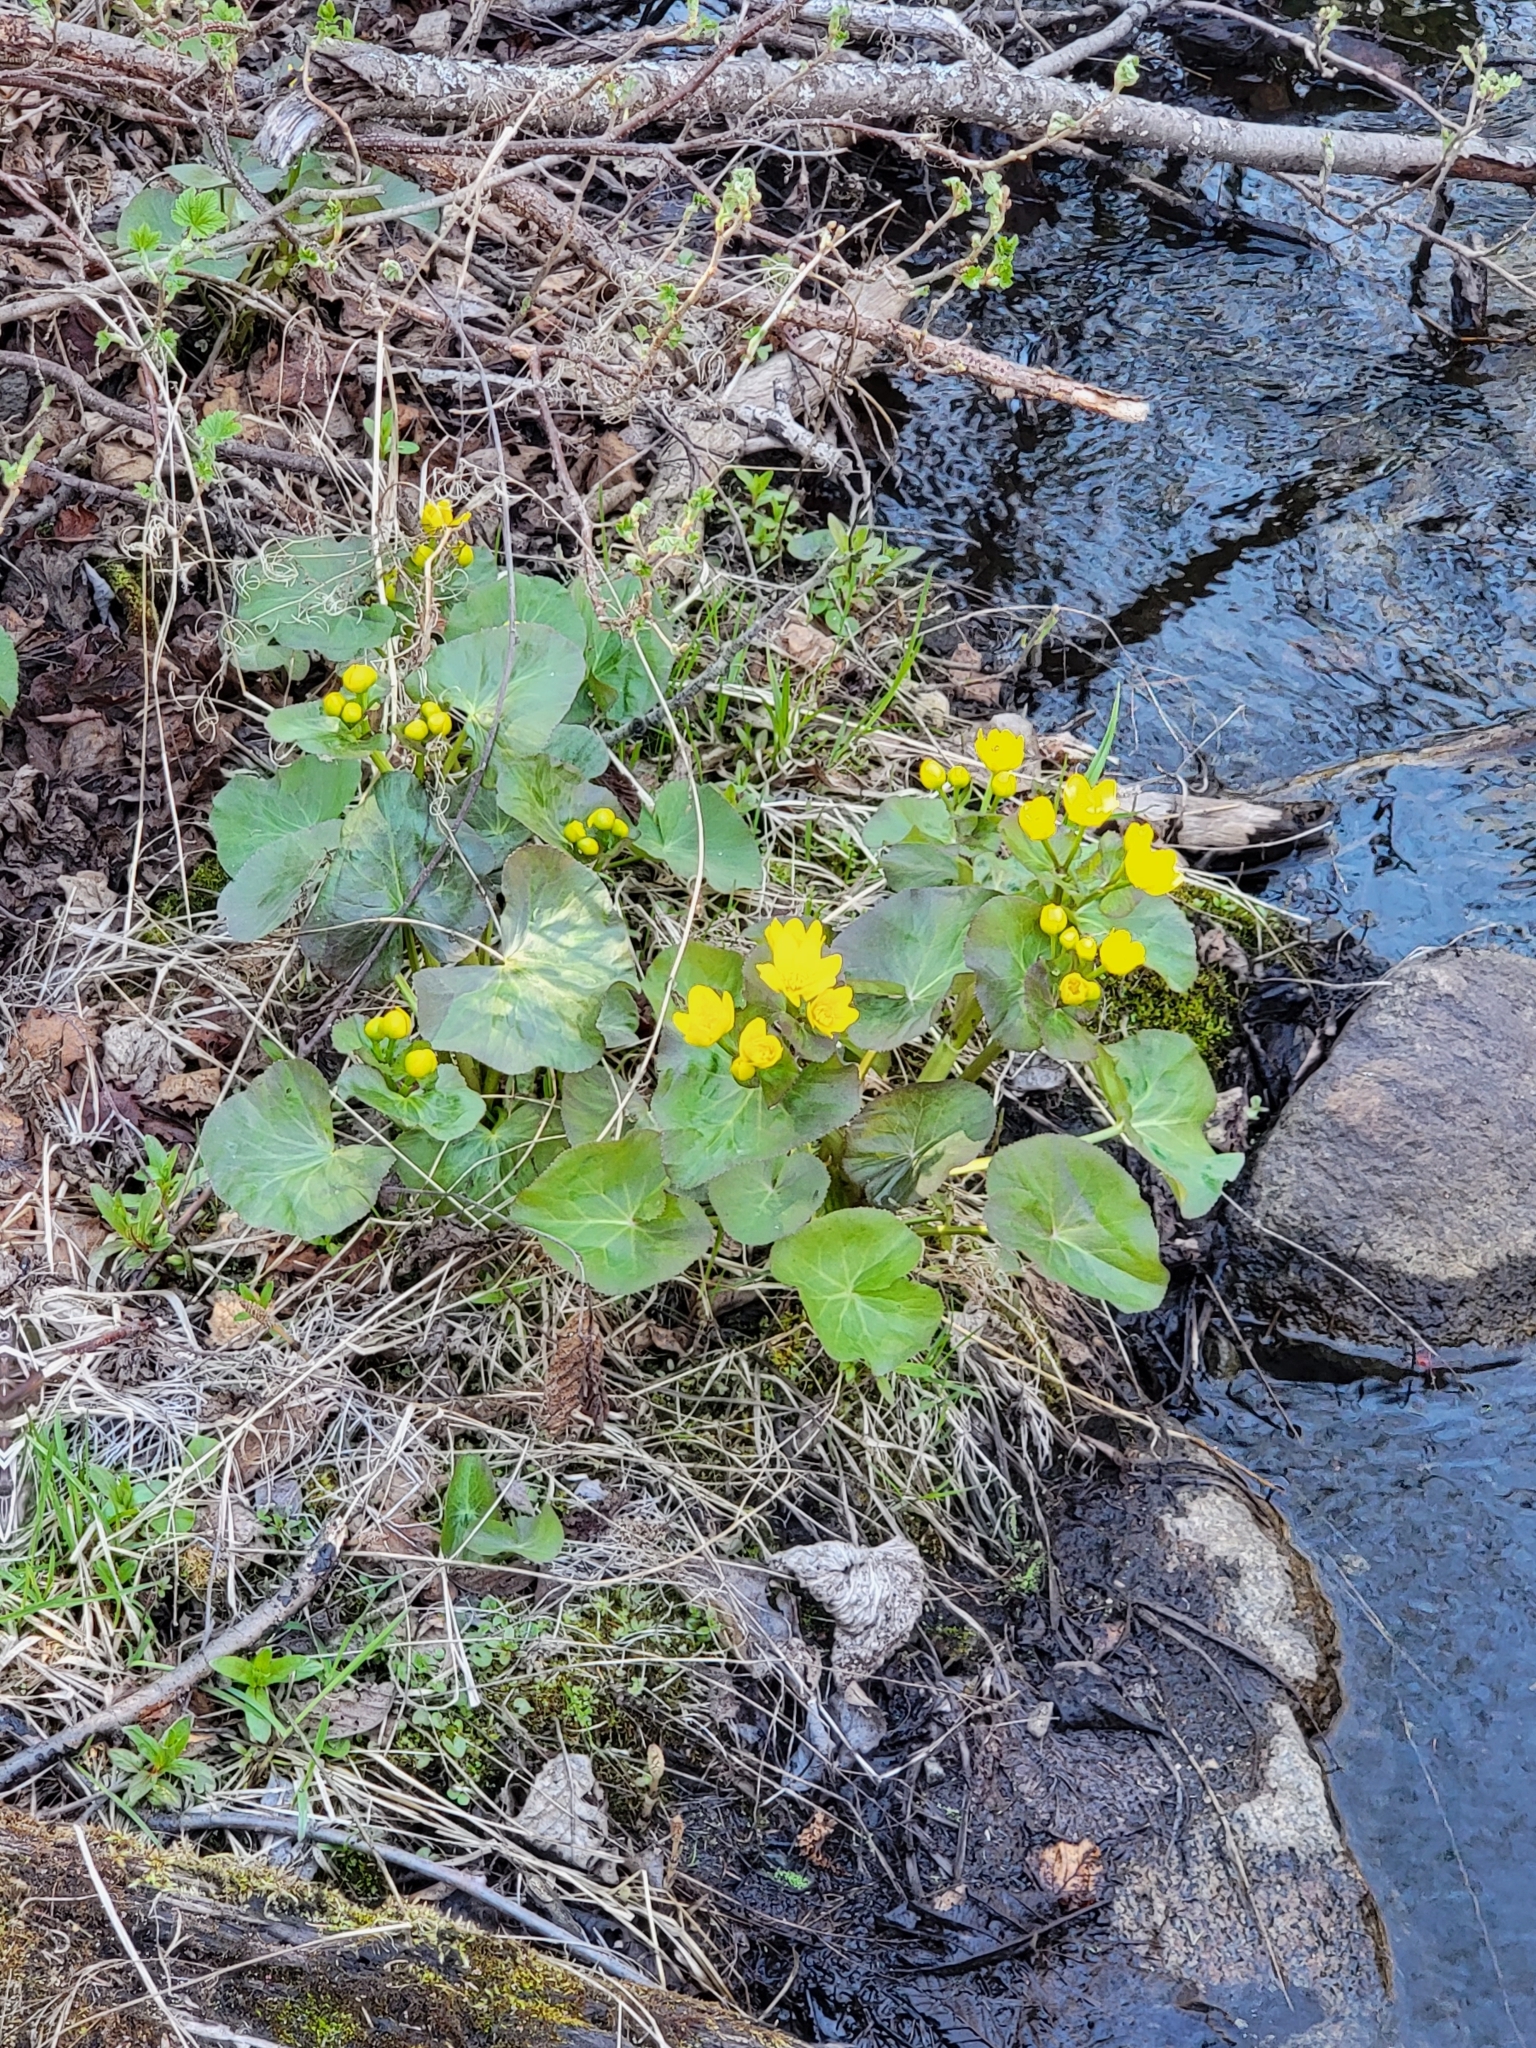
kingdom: Plantae
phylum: Tracheophyta
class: Magnoliopsida
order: Ranunculales
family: Ranunculaceae
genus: Caltha
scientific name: Caltha palustris
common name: Marsh marigold
